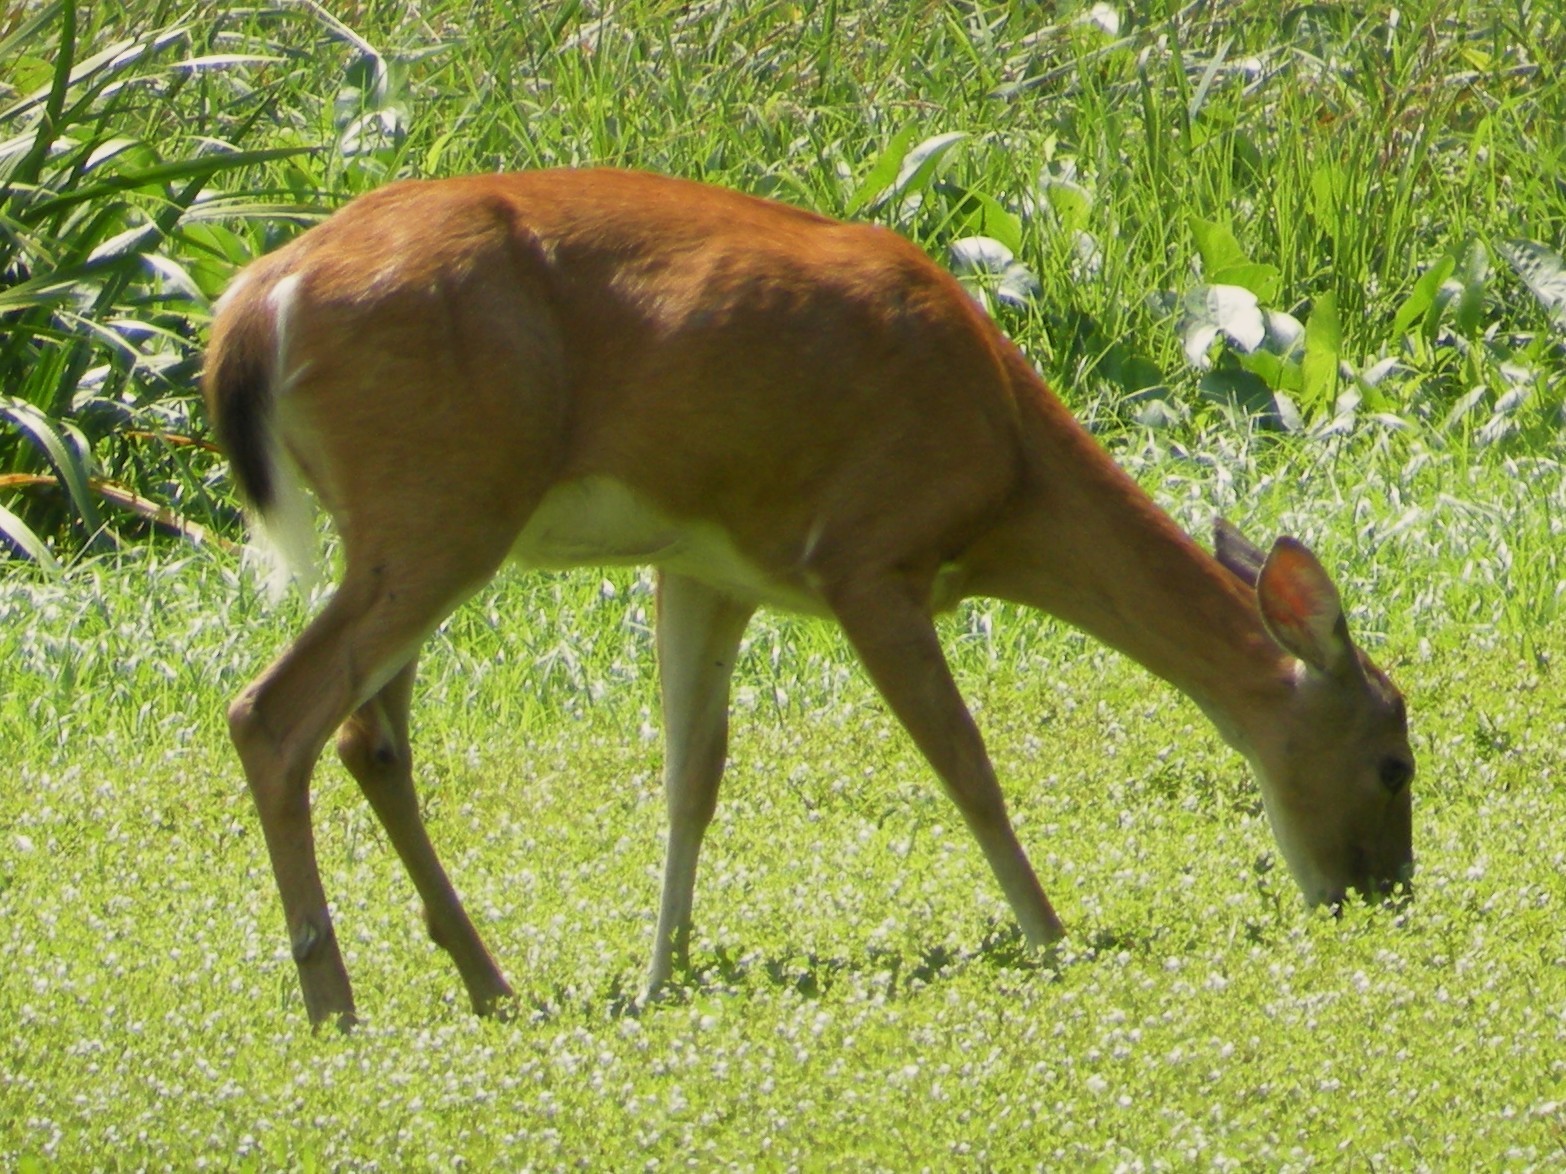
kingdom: Animalia
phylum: Chordata
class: Mammalia
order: Artiodactyla
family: Cervidae
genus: Odocoileus
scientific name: Odocoileus virginianus
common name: White-tailed deer
